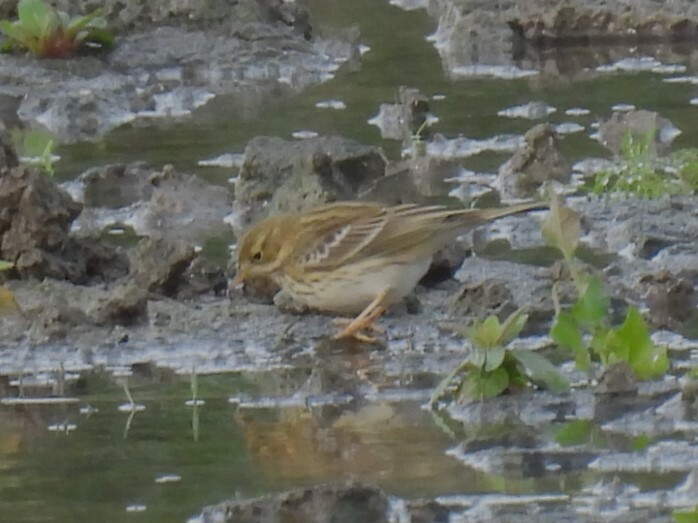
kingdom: Animalia
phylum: Chordata
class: Aves
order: Passeriformes
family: Motacillidae
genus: Anthus
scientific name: Anthus pratensis
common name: Meadow pipit
